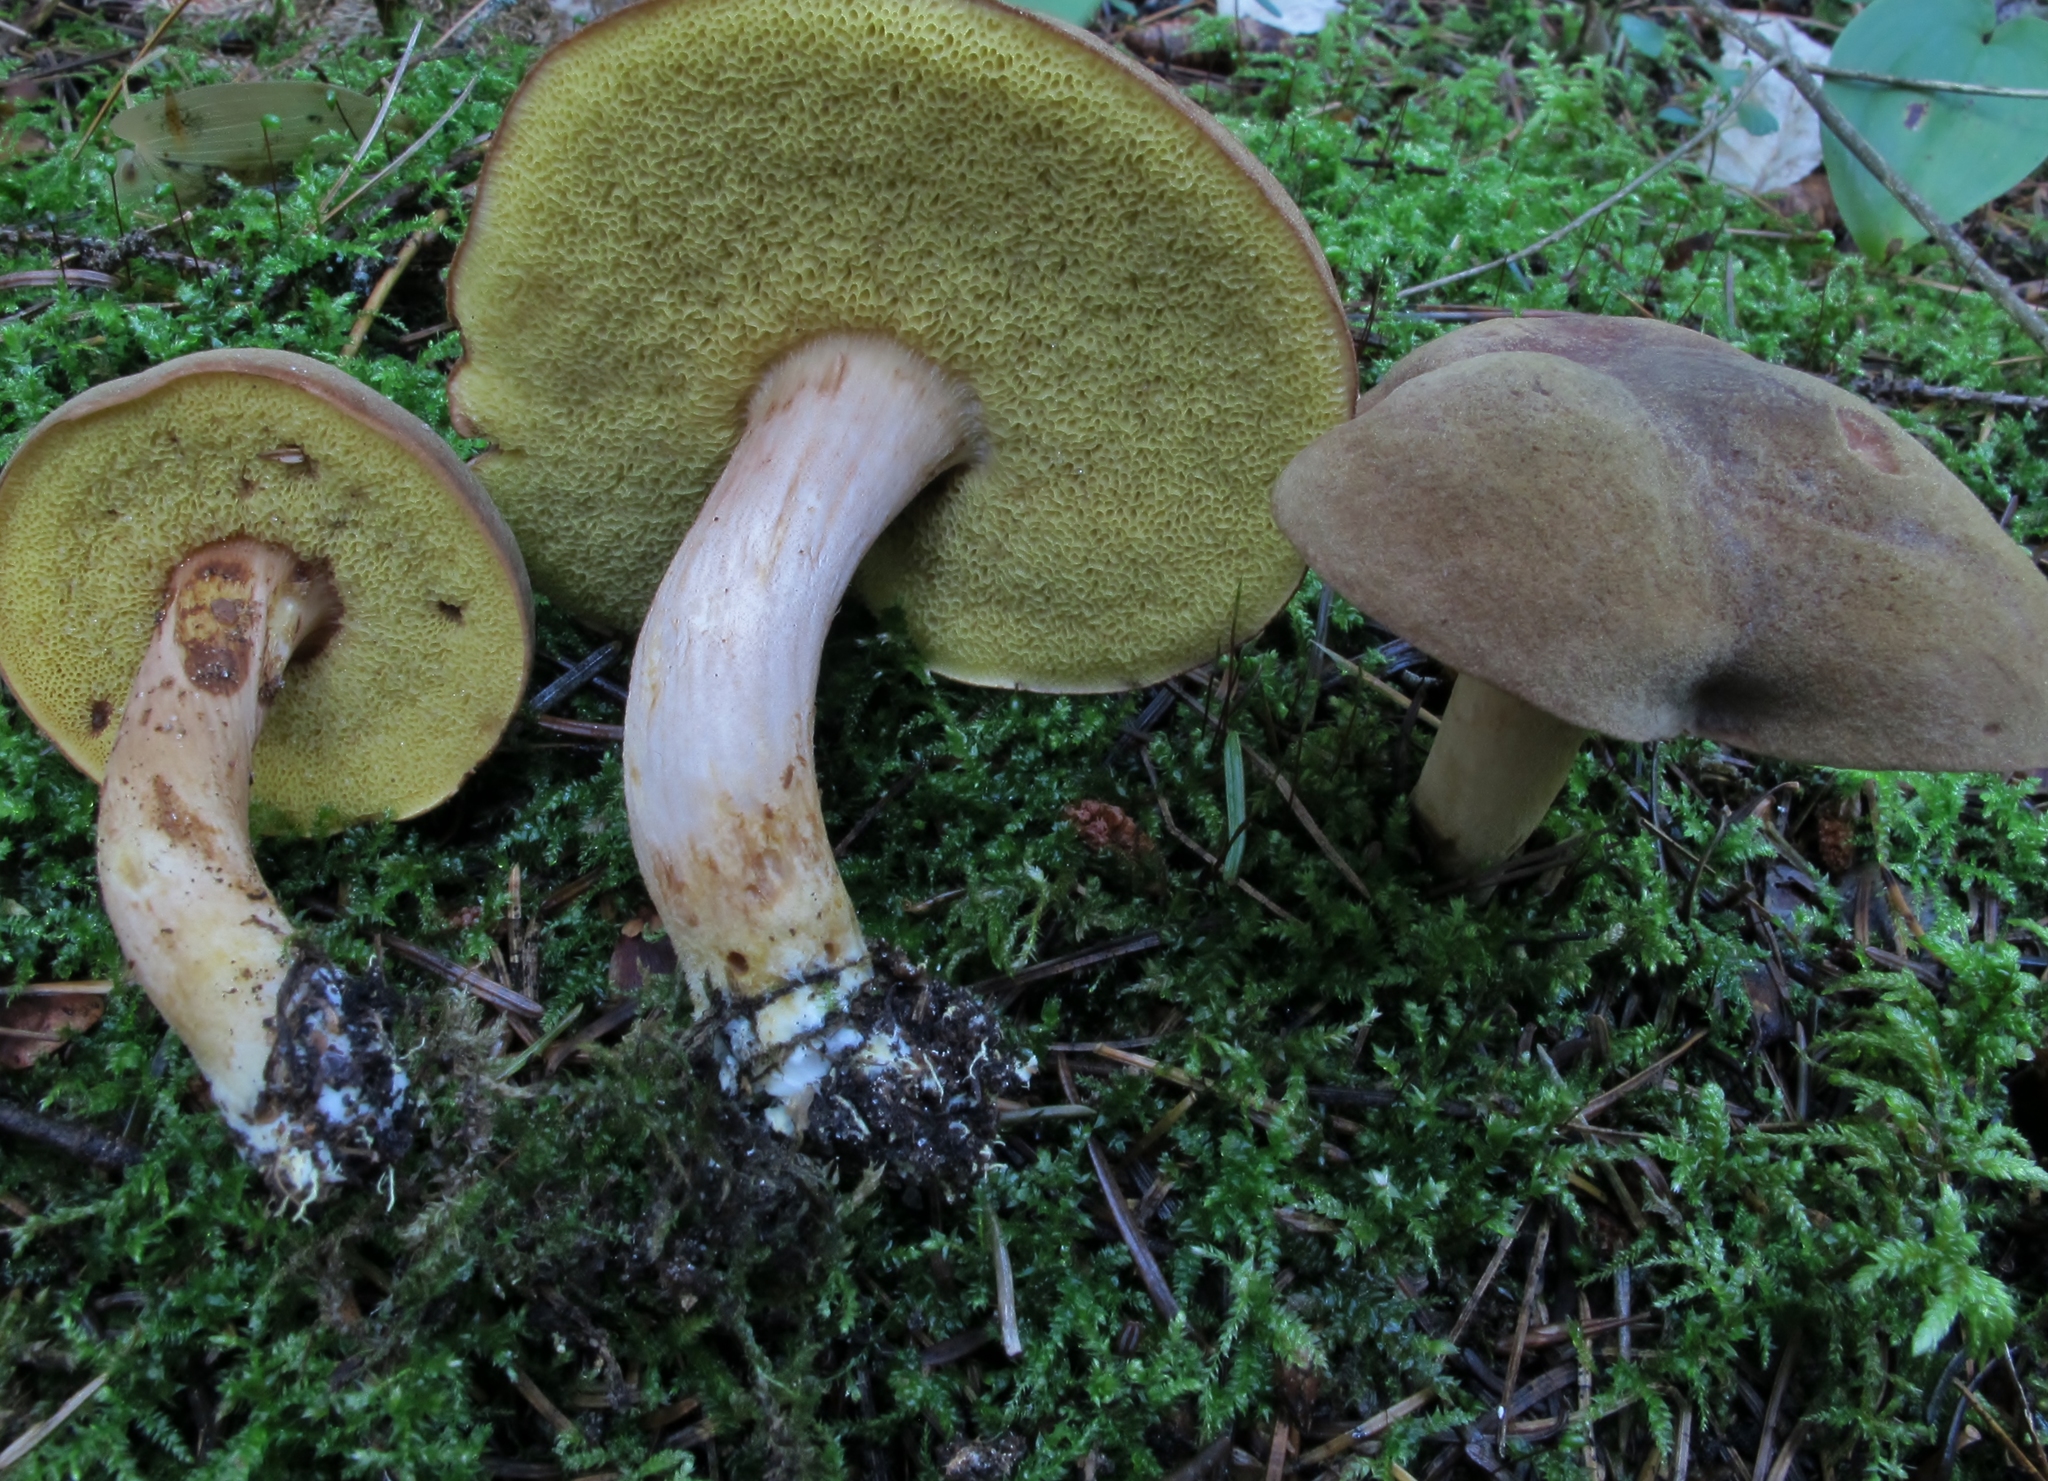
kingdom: Fungi
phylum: Basidiomycota
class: Agaricomycetes
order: Boletales
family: Boletaceae
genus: Xerocomus
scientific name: Xerocomus subtomentosus
